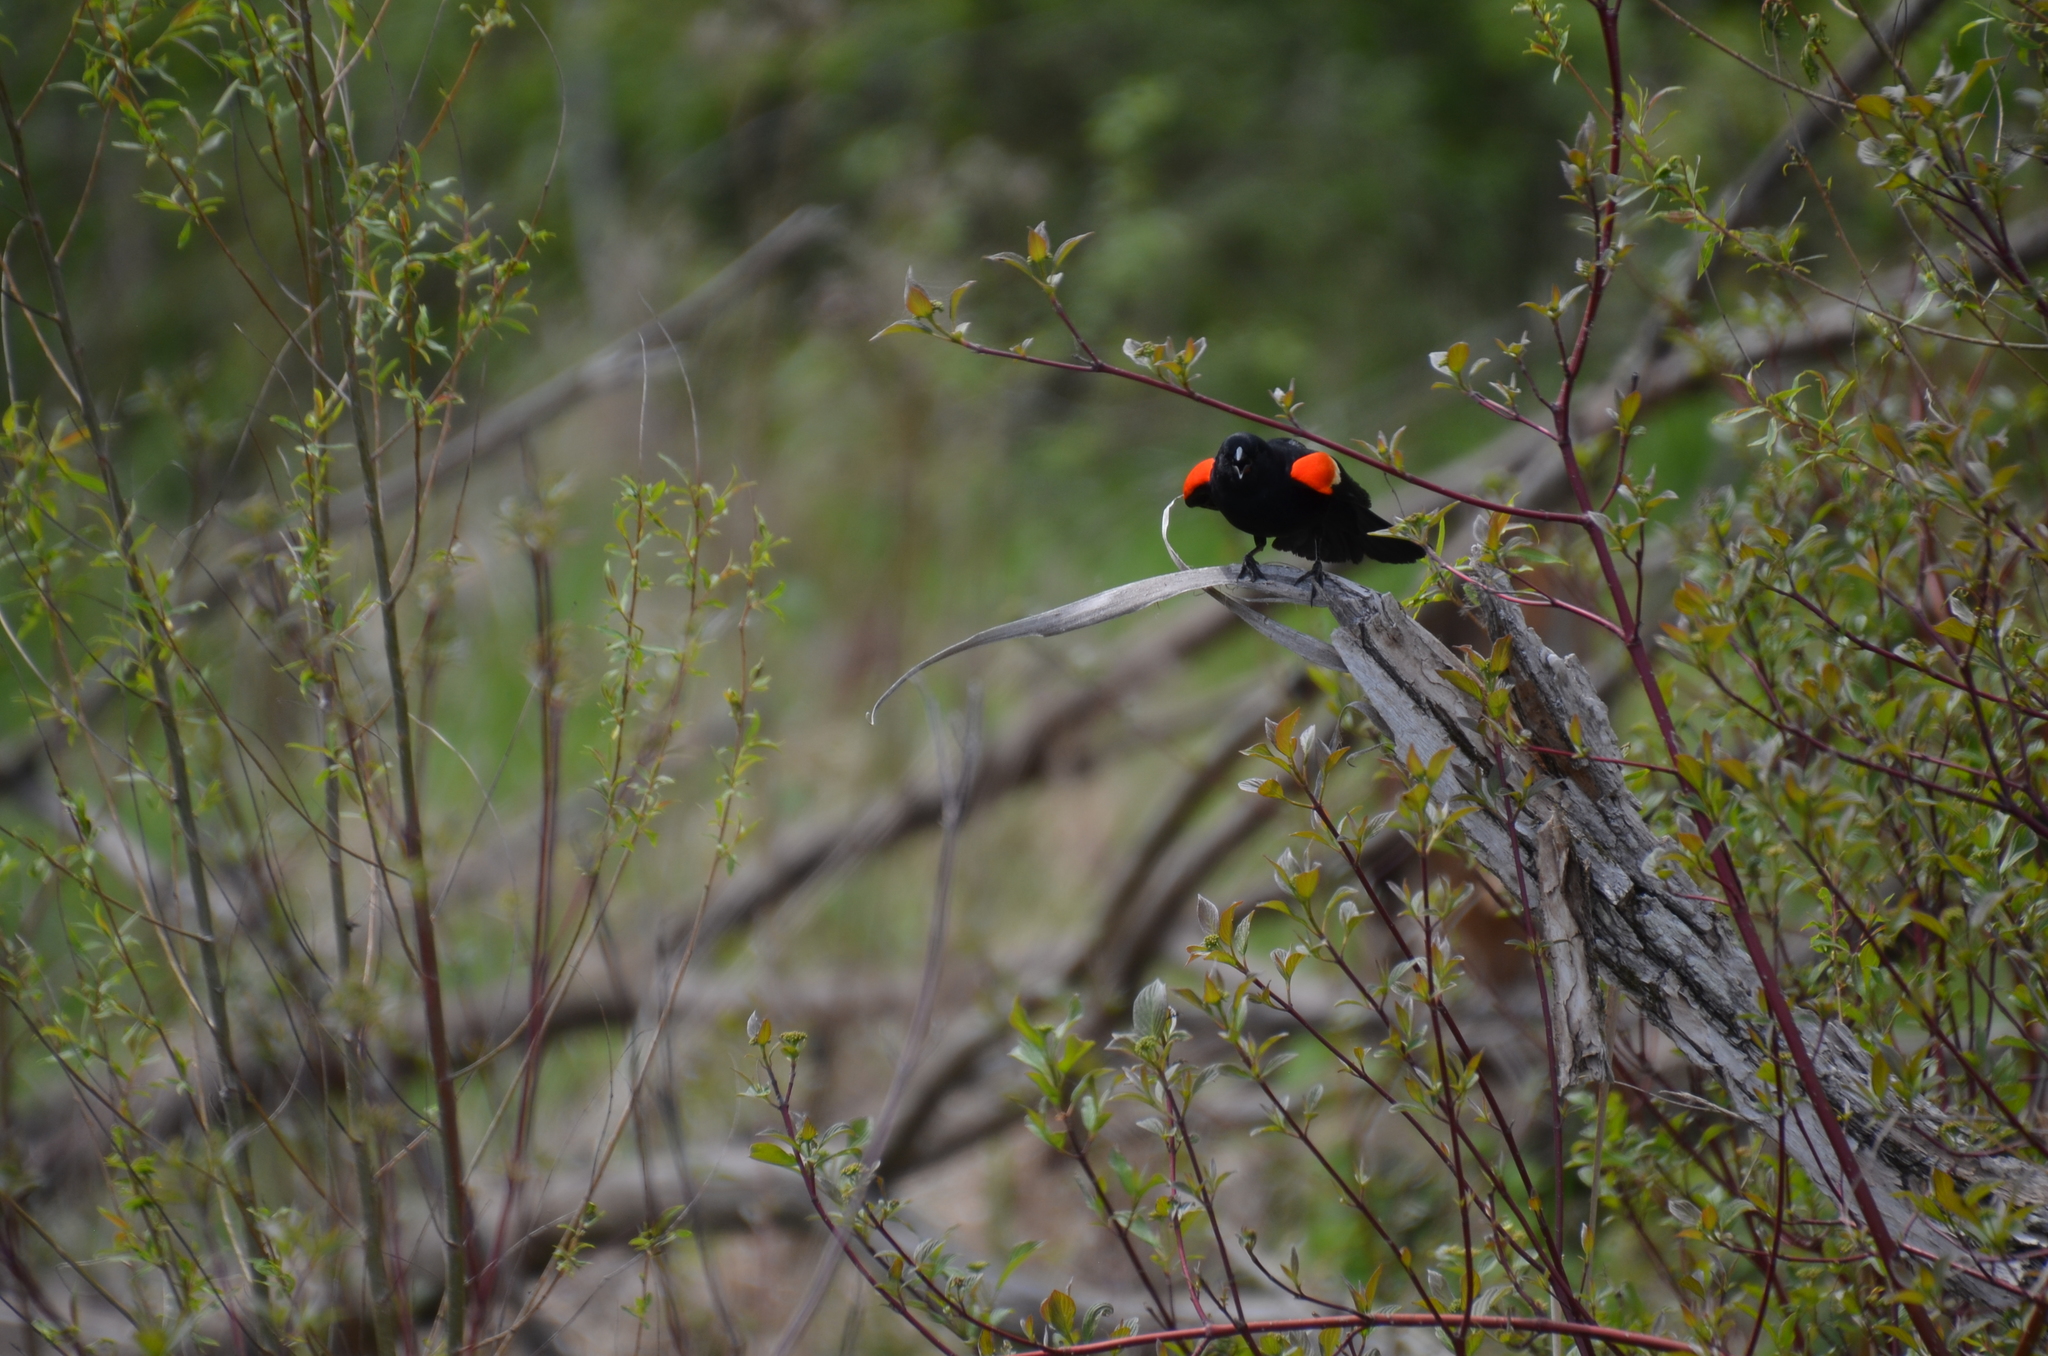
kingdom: Animalia
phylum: Chordata
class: Aves
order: Passeriformes
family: Icteridae
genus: Agelaius
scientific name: Agelaius phoeniceus
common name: Red-winged blackbird
